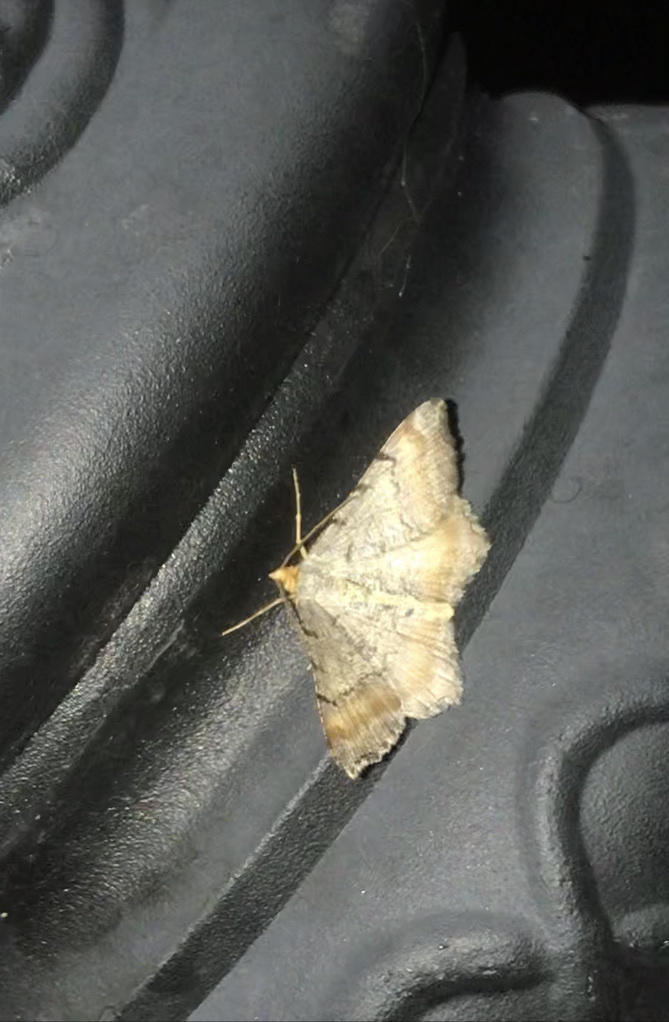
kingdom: Animalia
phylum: Arthropoda
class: Insecta
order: Lepidoptera
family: Geometridae
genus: Macaria
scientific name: Macaria adonis
